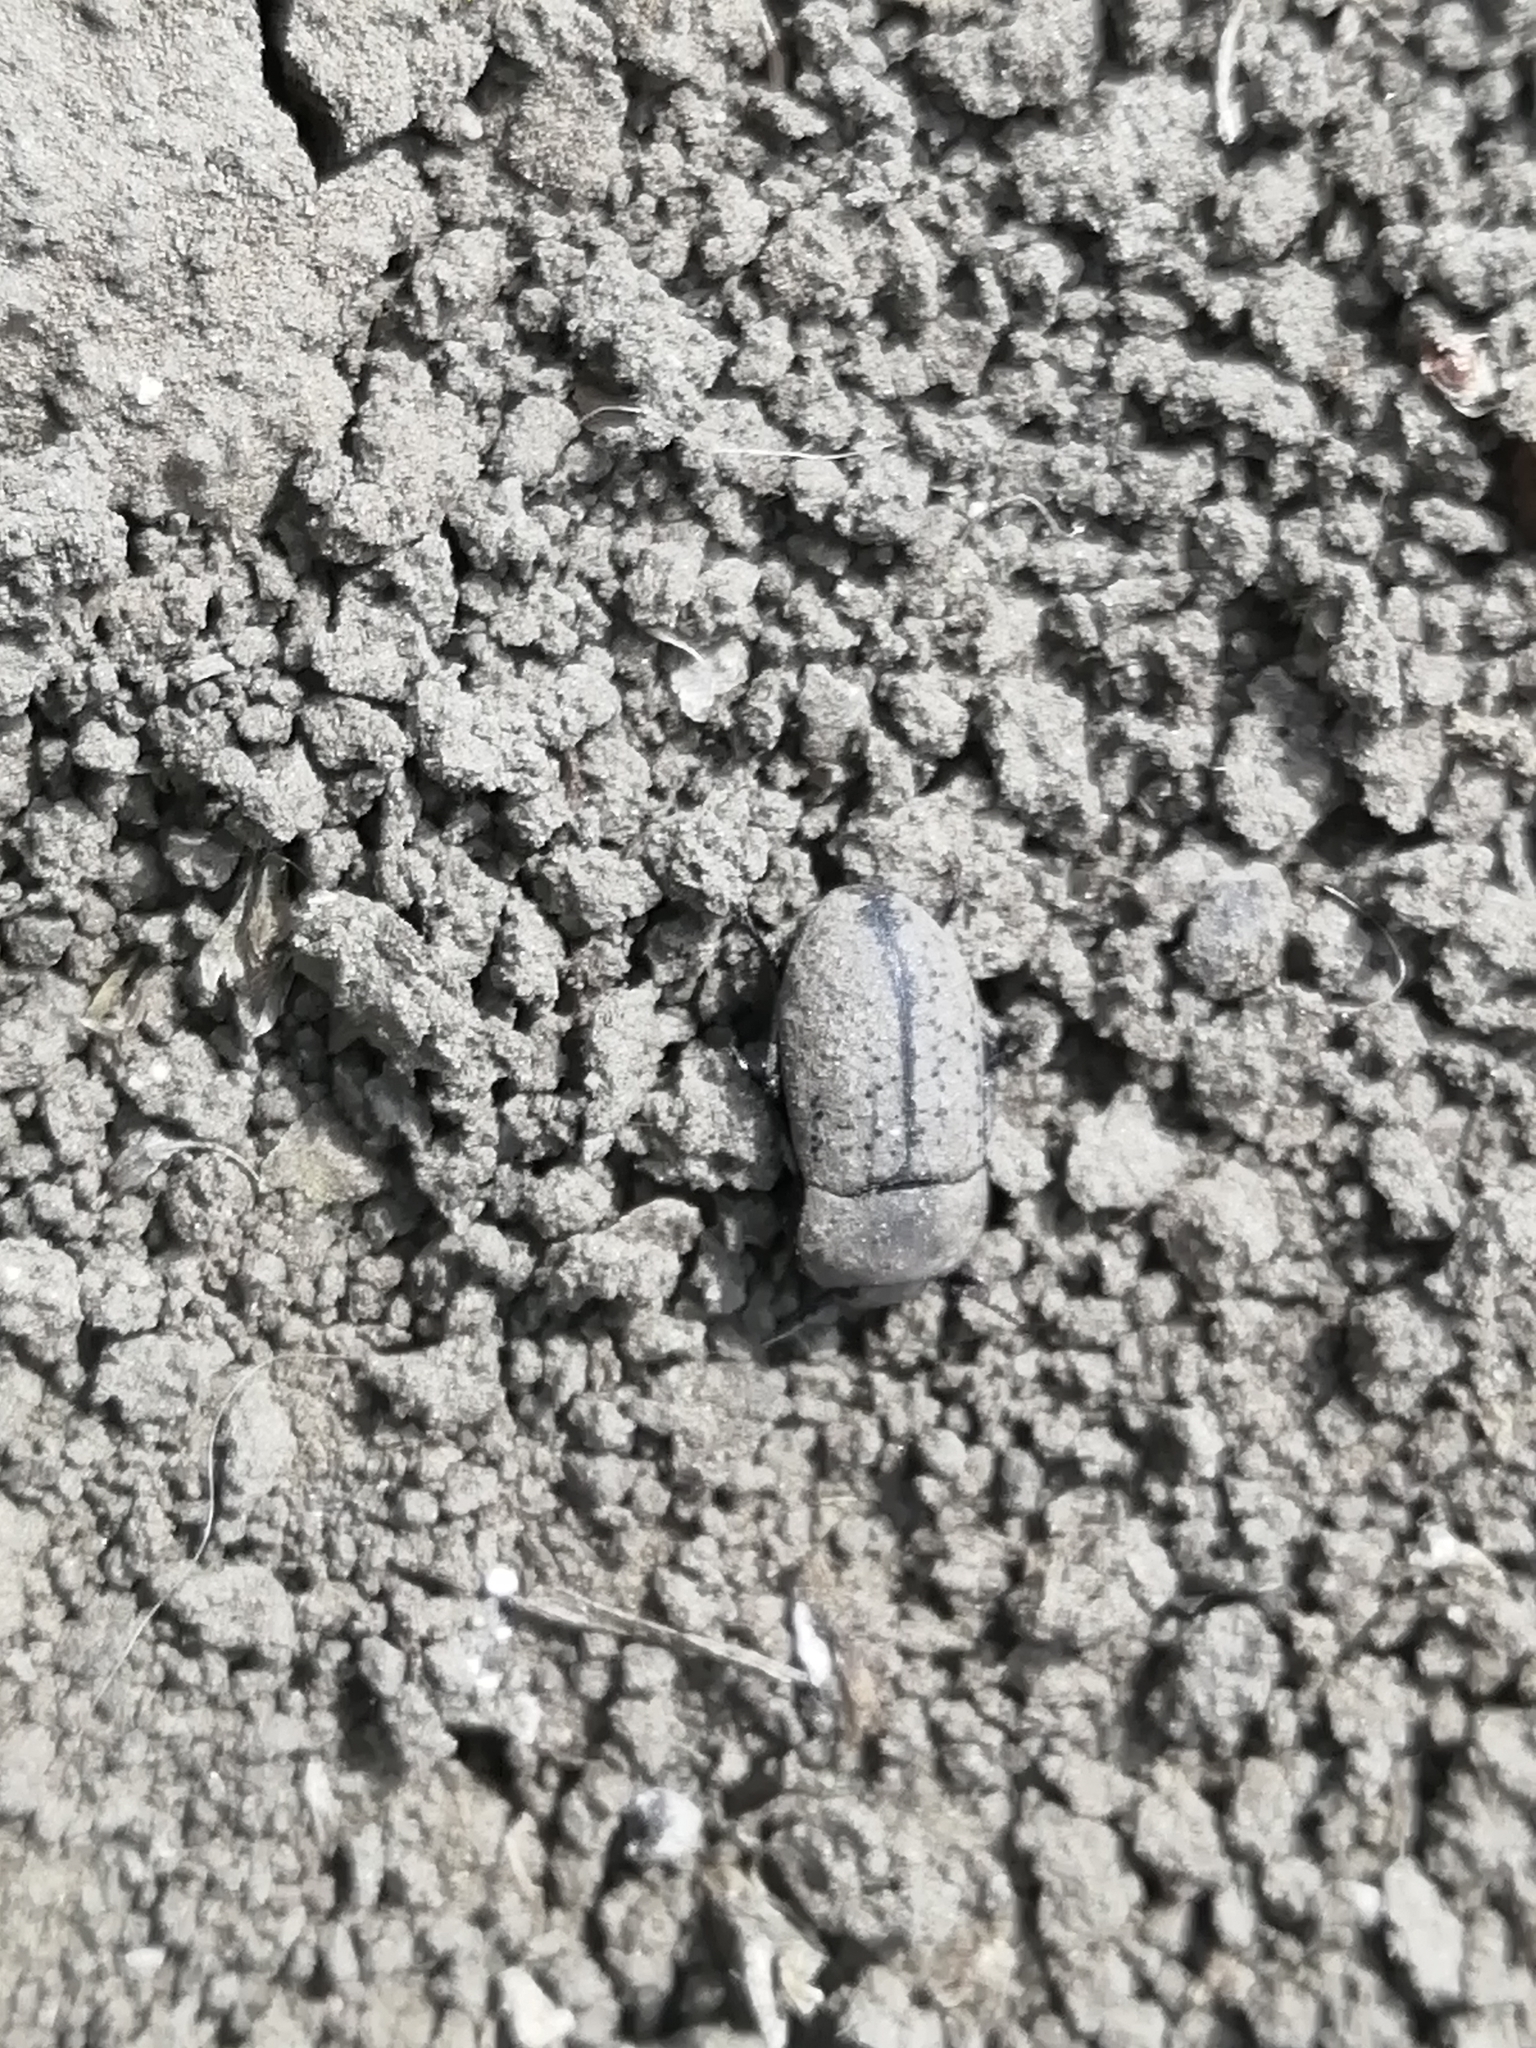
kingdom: Animalia
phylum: Arthropoda
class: Insecta
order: Coleoptera
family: Tenebrionidae
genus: Opatrum
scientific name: Opatrum sabulosum
